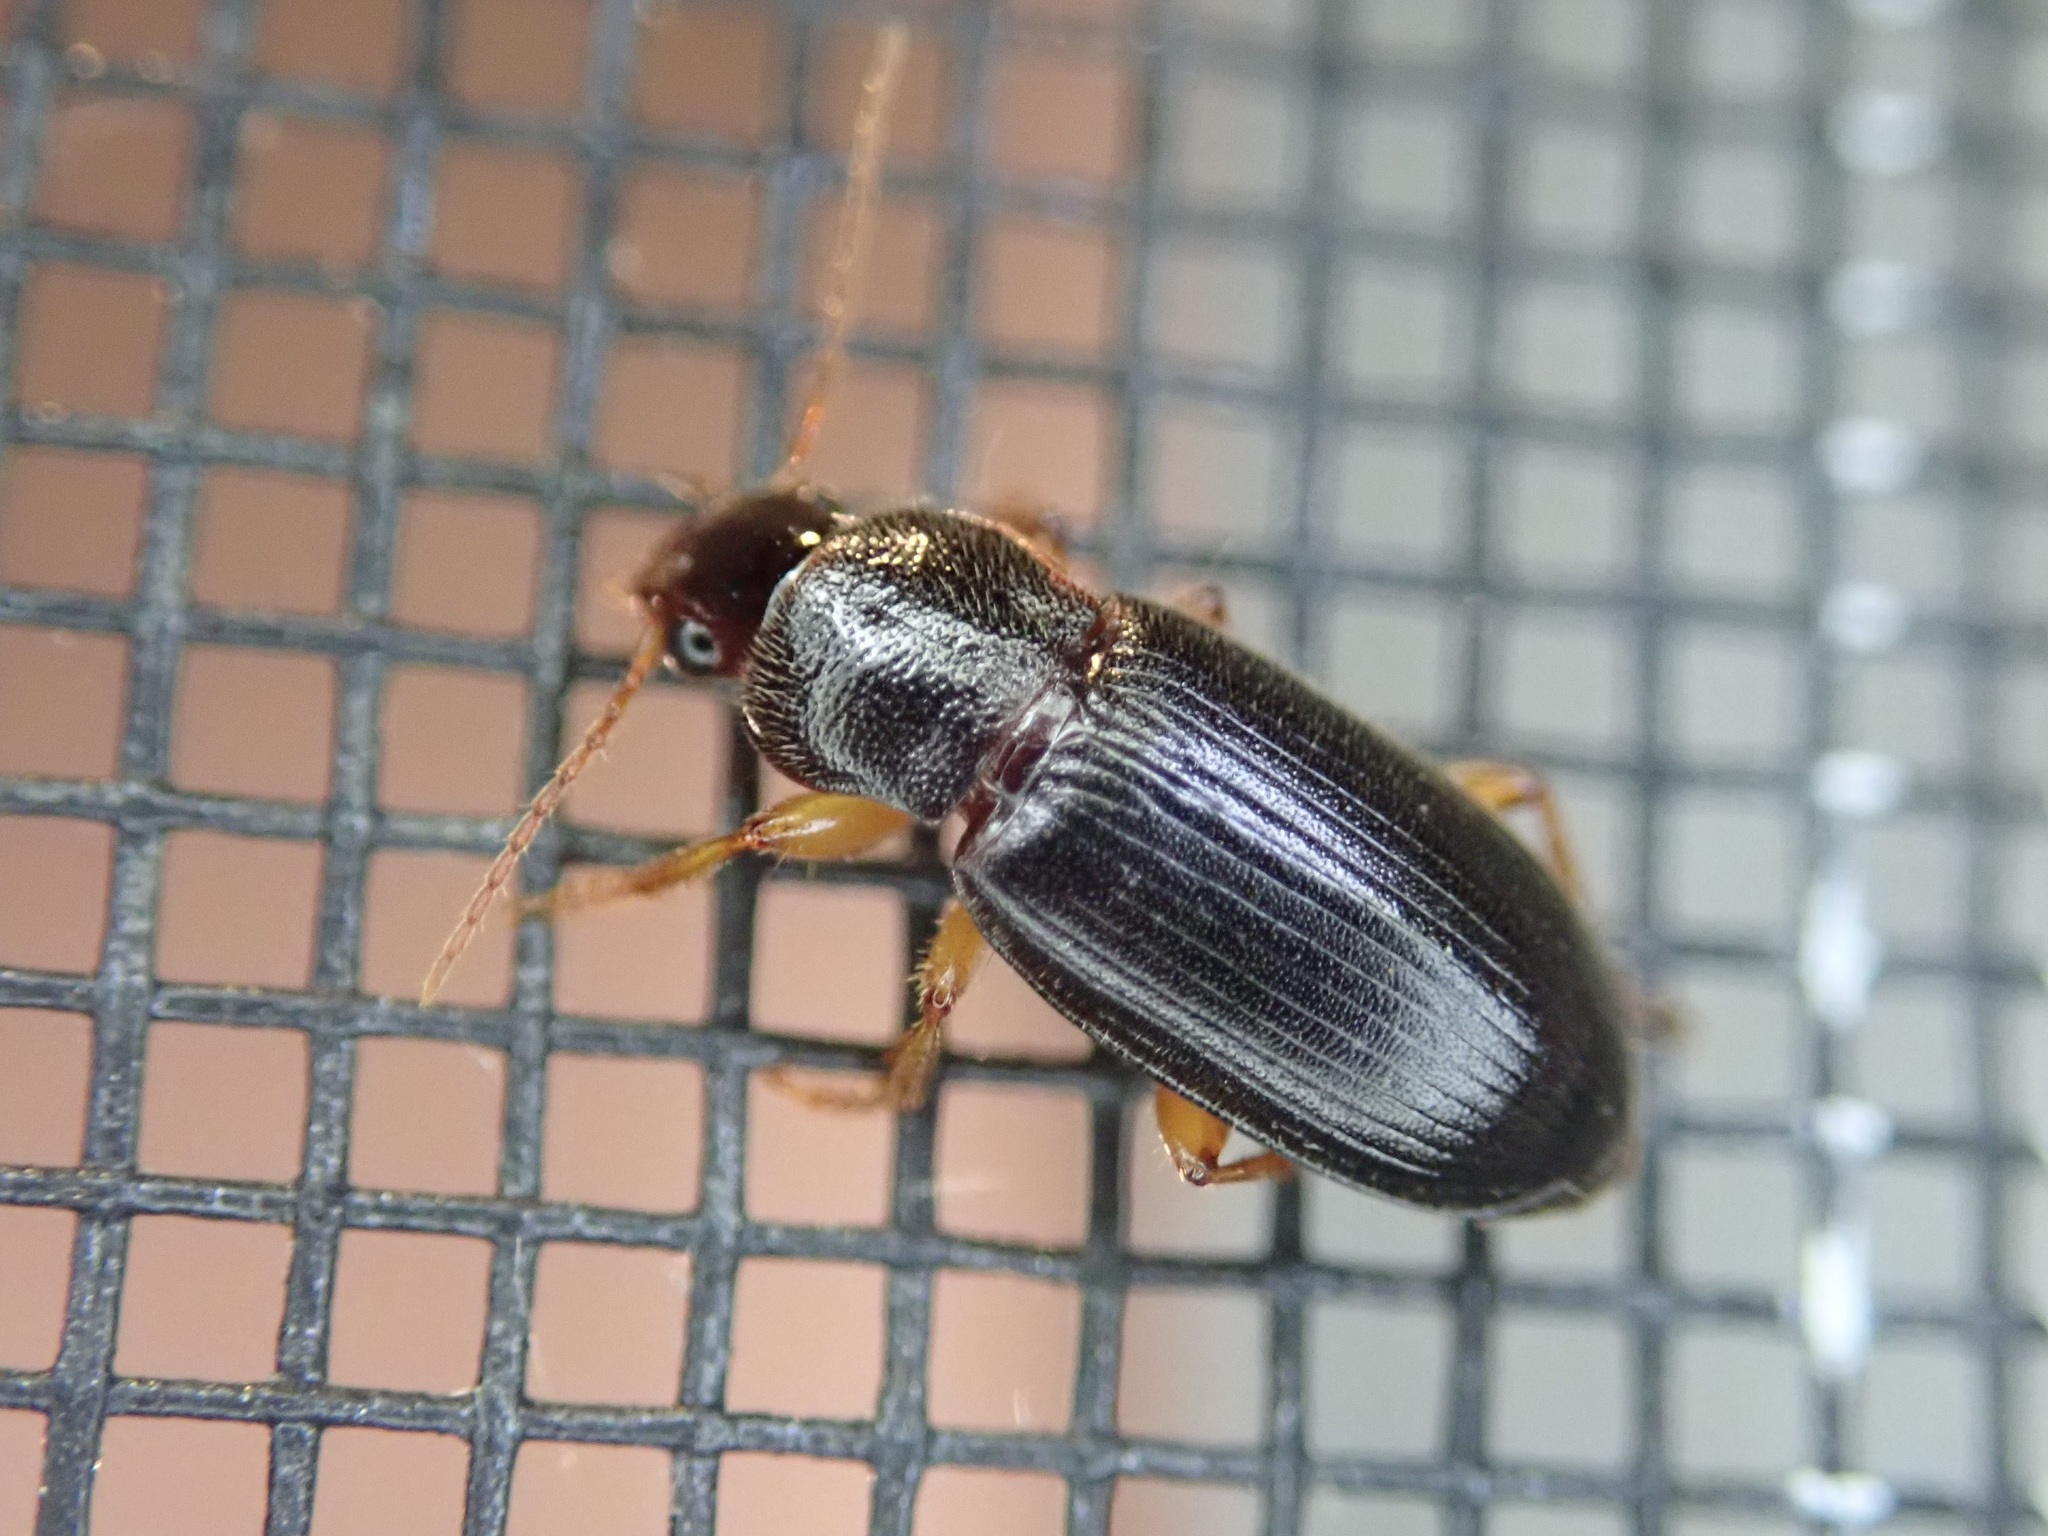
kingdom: Animalia
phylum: Arthropoda
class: Insecta
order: Coleoptera
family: Carabidae
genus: Ophonus
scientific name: Ophonus puncticeps
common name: Puncture-headed harp ground beetle
